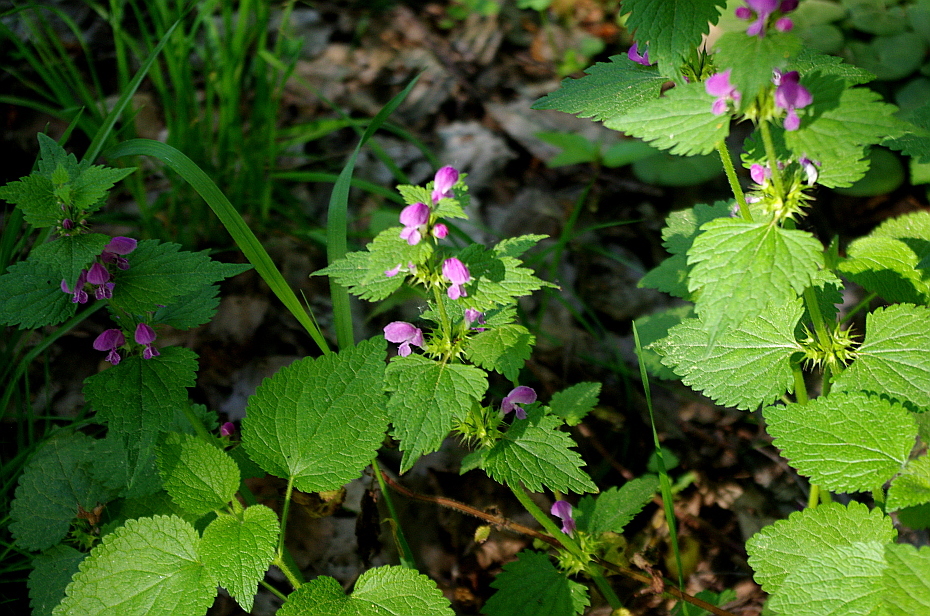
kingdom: Plantae
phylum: Tracheophyta
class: Magnoliopsida
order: Lamiales
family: Lamiaceae
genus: Lamium
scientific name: Lamium maculatum
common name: Spotted dead-nettle
